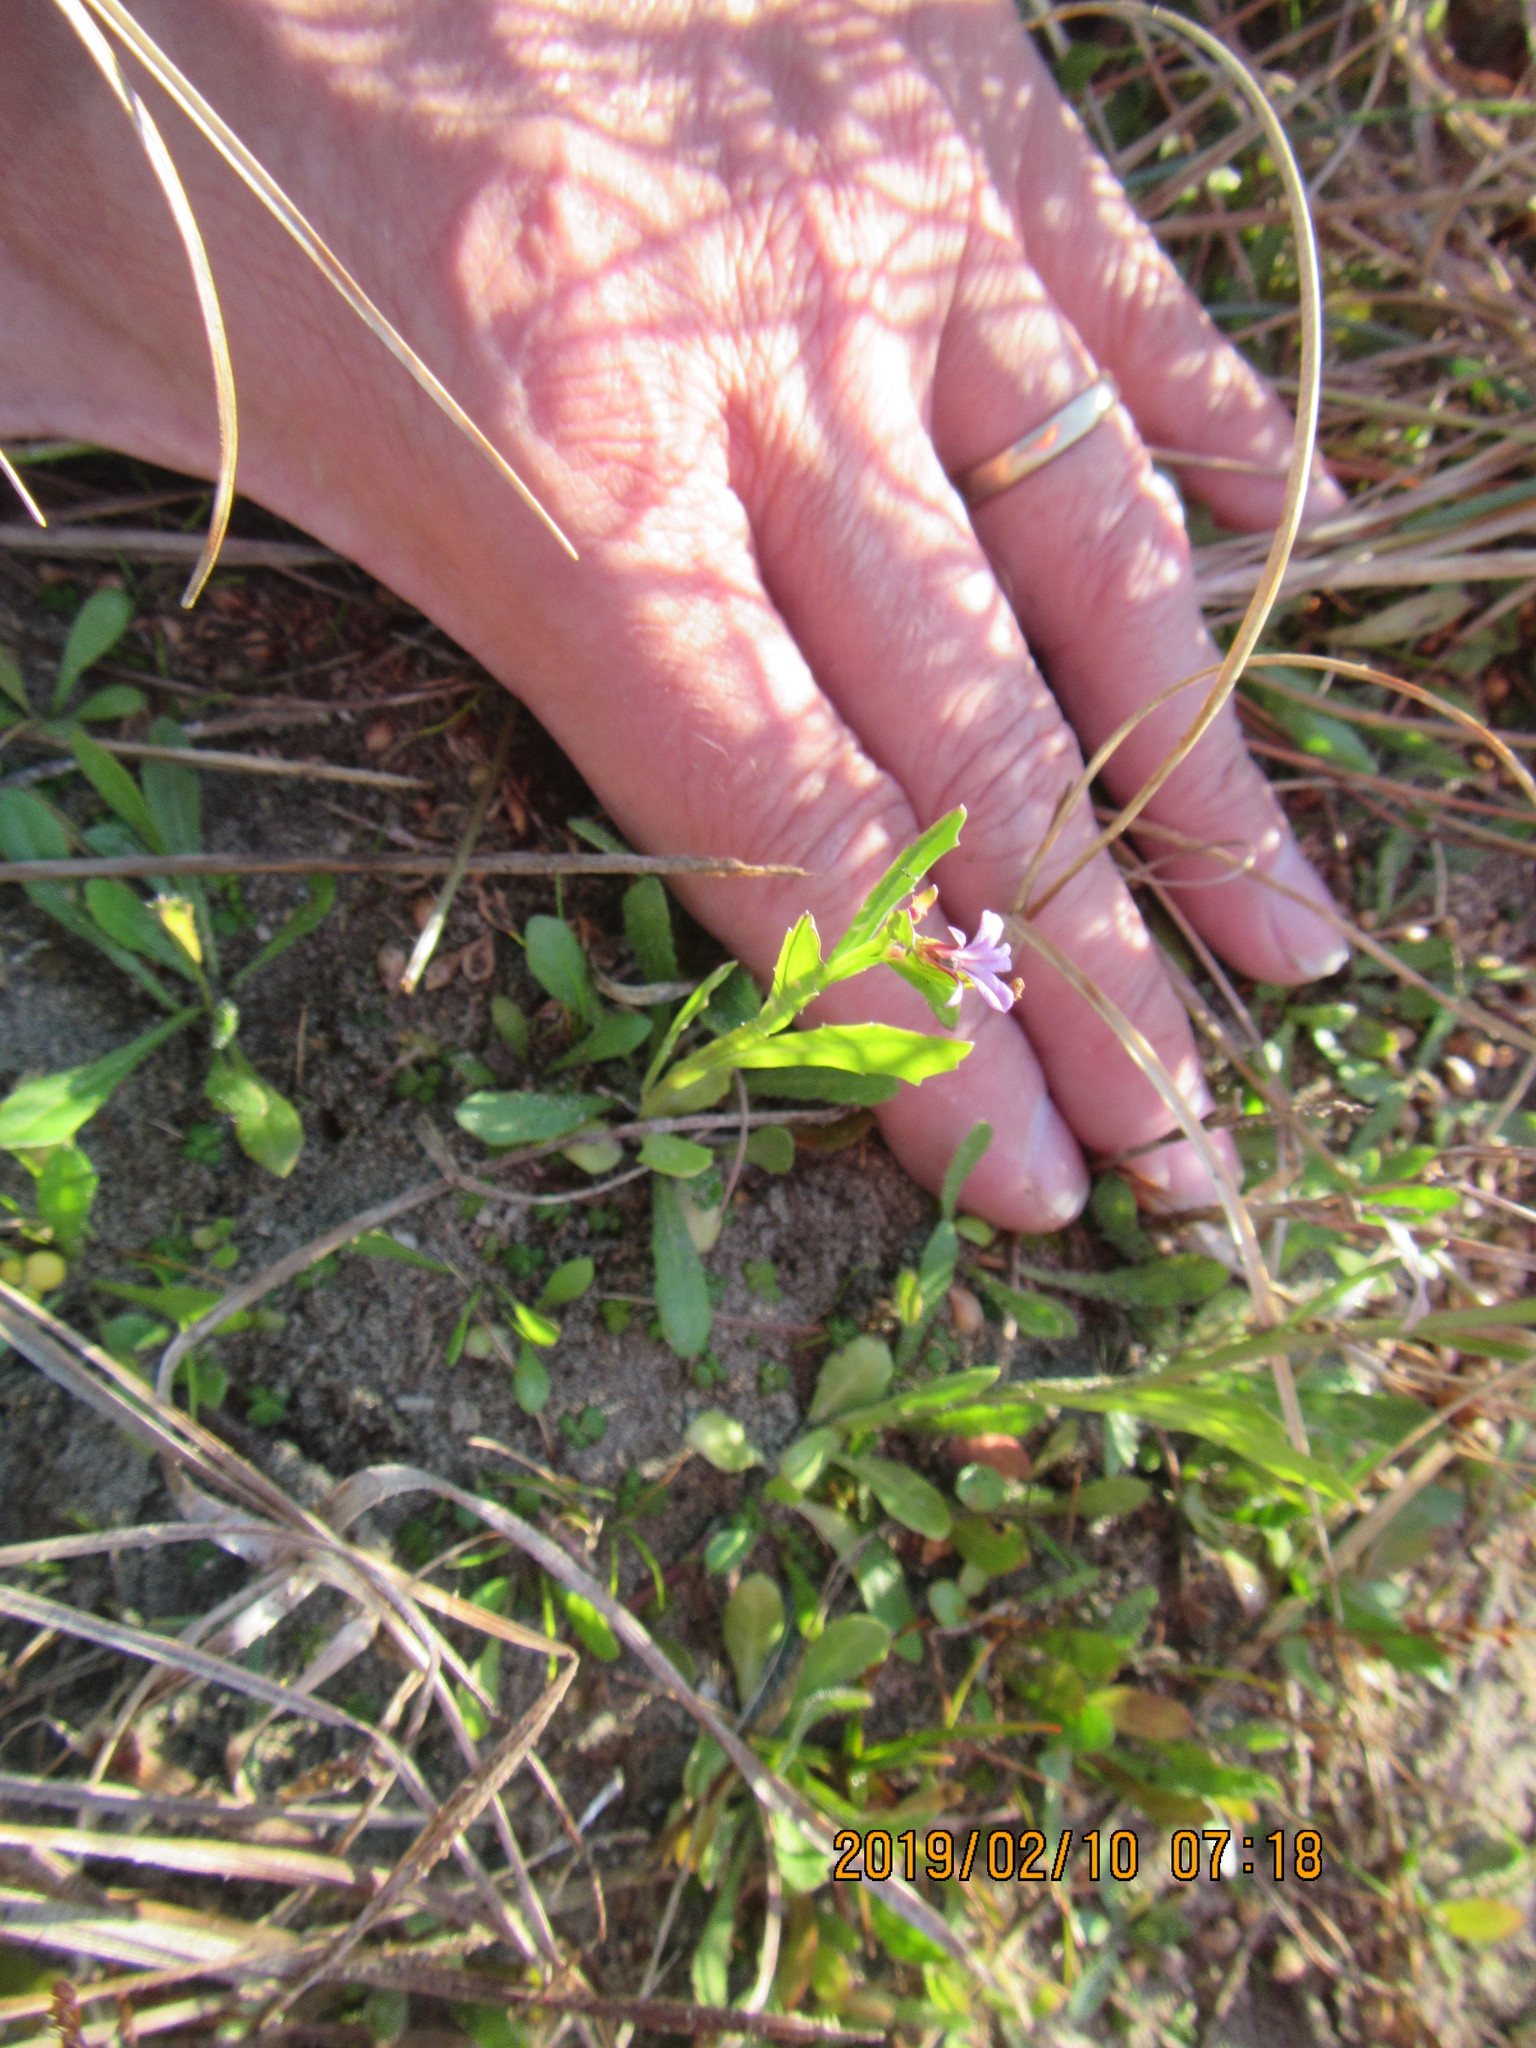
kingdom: Plantae
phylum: Tracheophyta
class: Magnoliopsida
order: Asterales
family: Campanulaceae
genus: Lobelia
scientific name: Lobelia anceps
